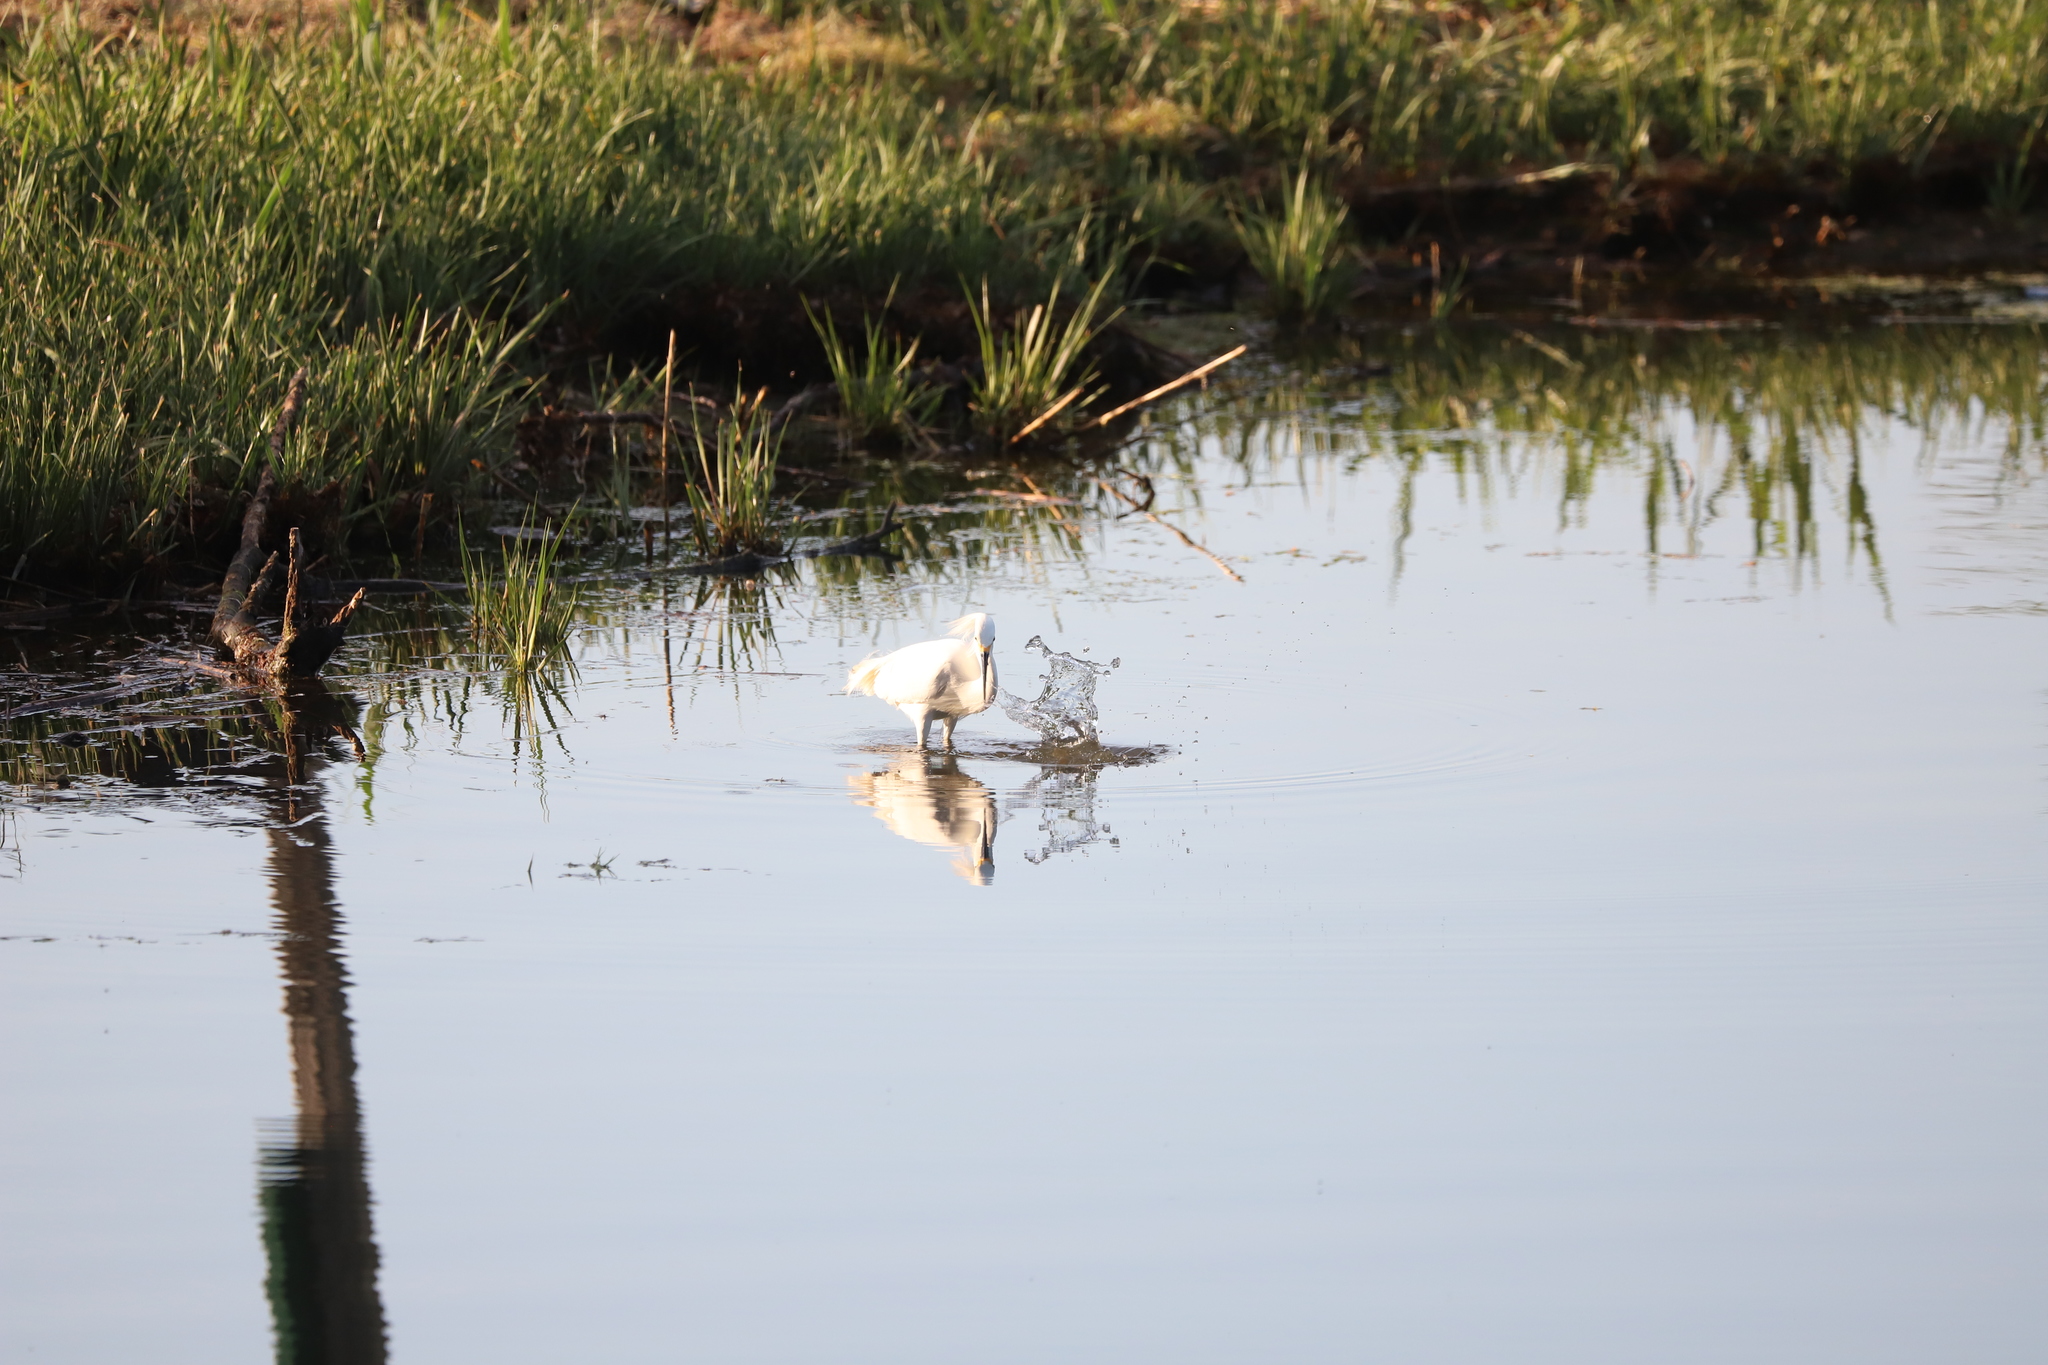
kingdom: Animalia
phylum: Chordata
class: Aves
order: Pelecaniformes
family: Ardeidae
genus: Egretta
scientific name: Egretta thula
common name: Snowy egret
